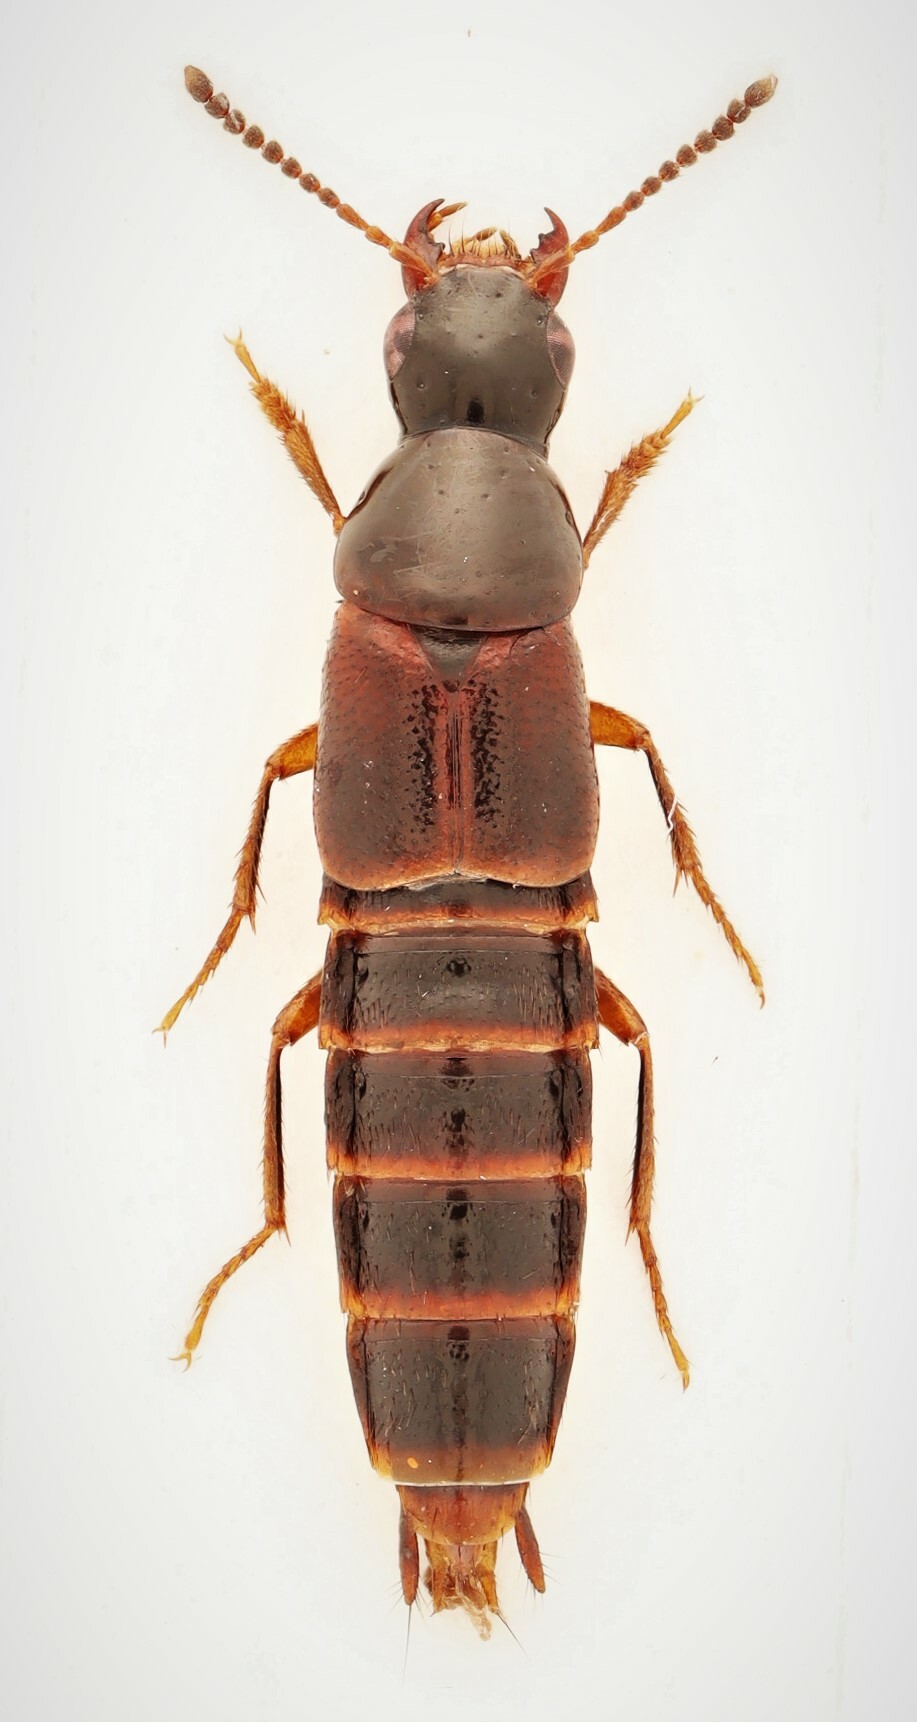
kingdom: Animalia
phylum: Arthropoda
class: Insecta
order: Coleoptera
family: Staphylinidae
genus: Quedius
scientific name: Quedius canadensis
